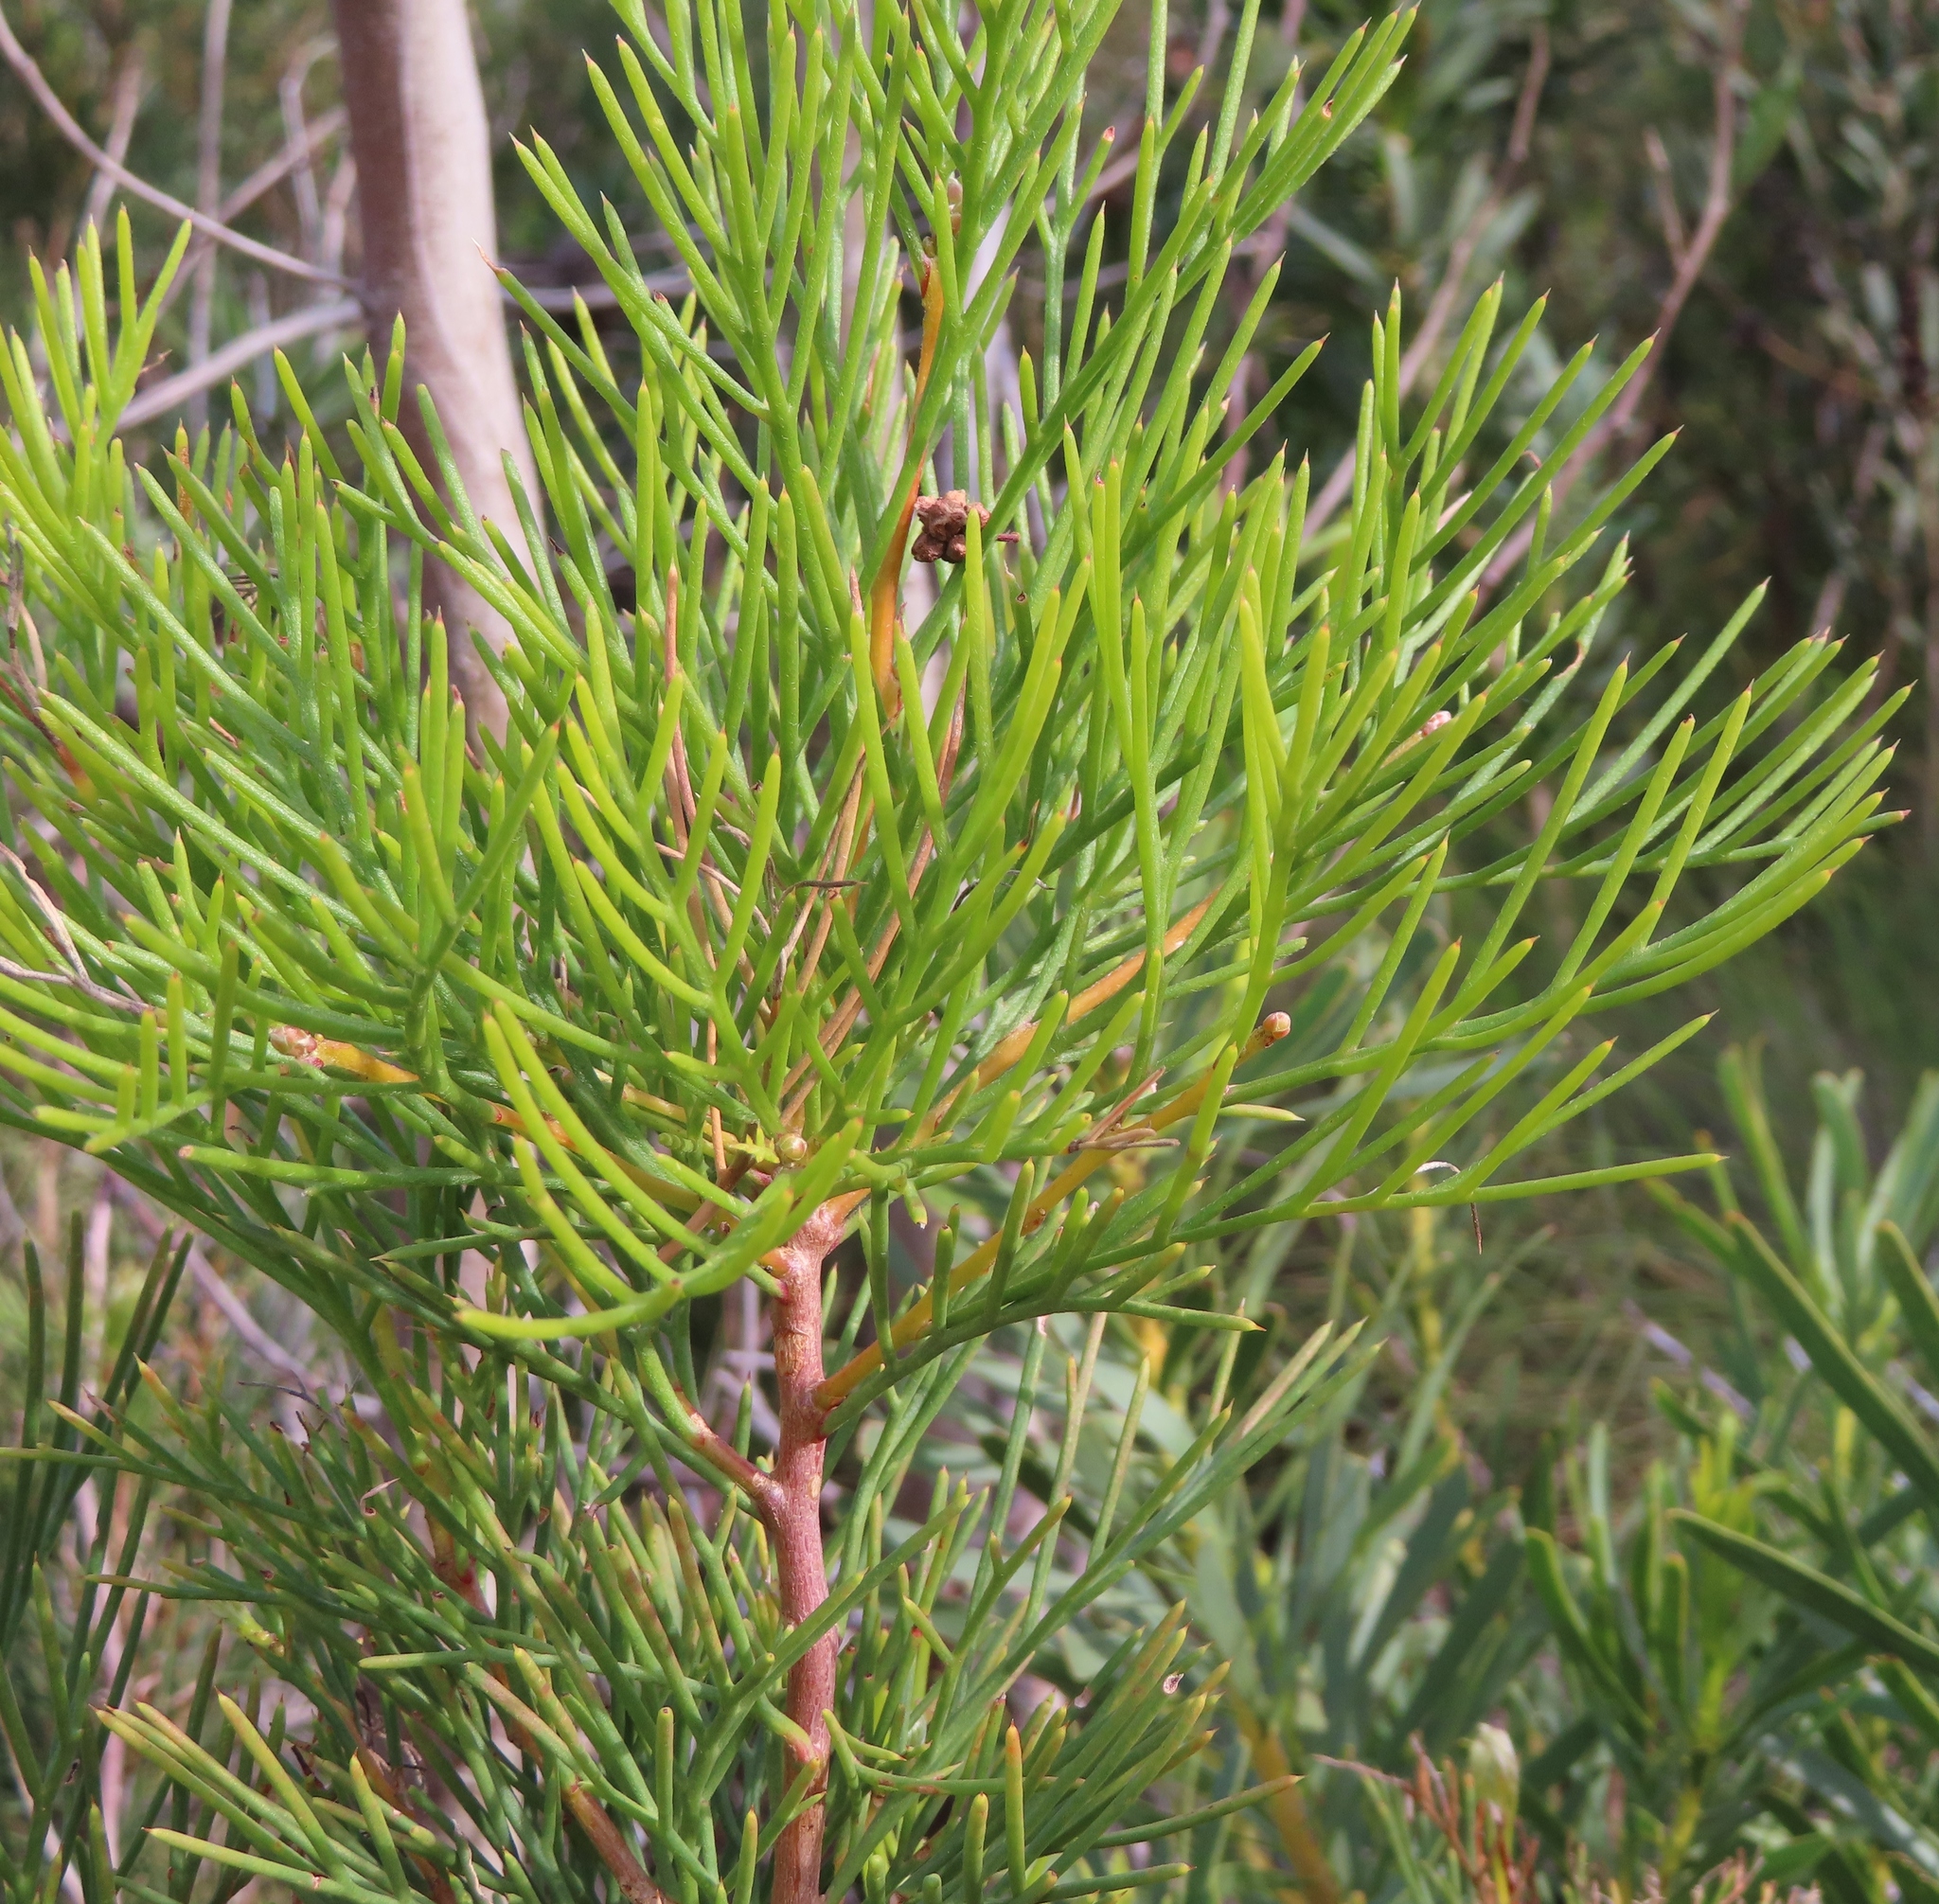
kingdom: Plantae
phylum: Tracheophyta
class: Magnoliopsida
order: Proteales
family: Proteaceae
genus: Hakea
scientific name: Hakea drupacea
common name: Sweet hakea
